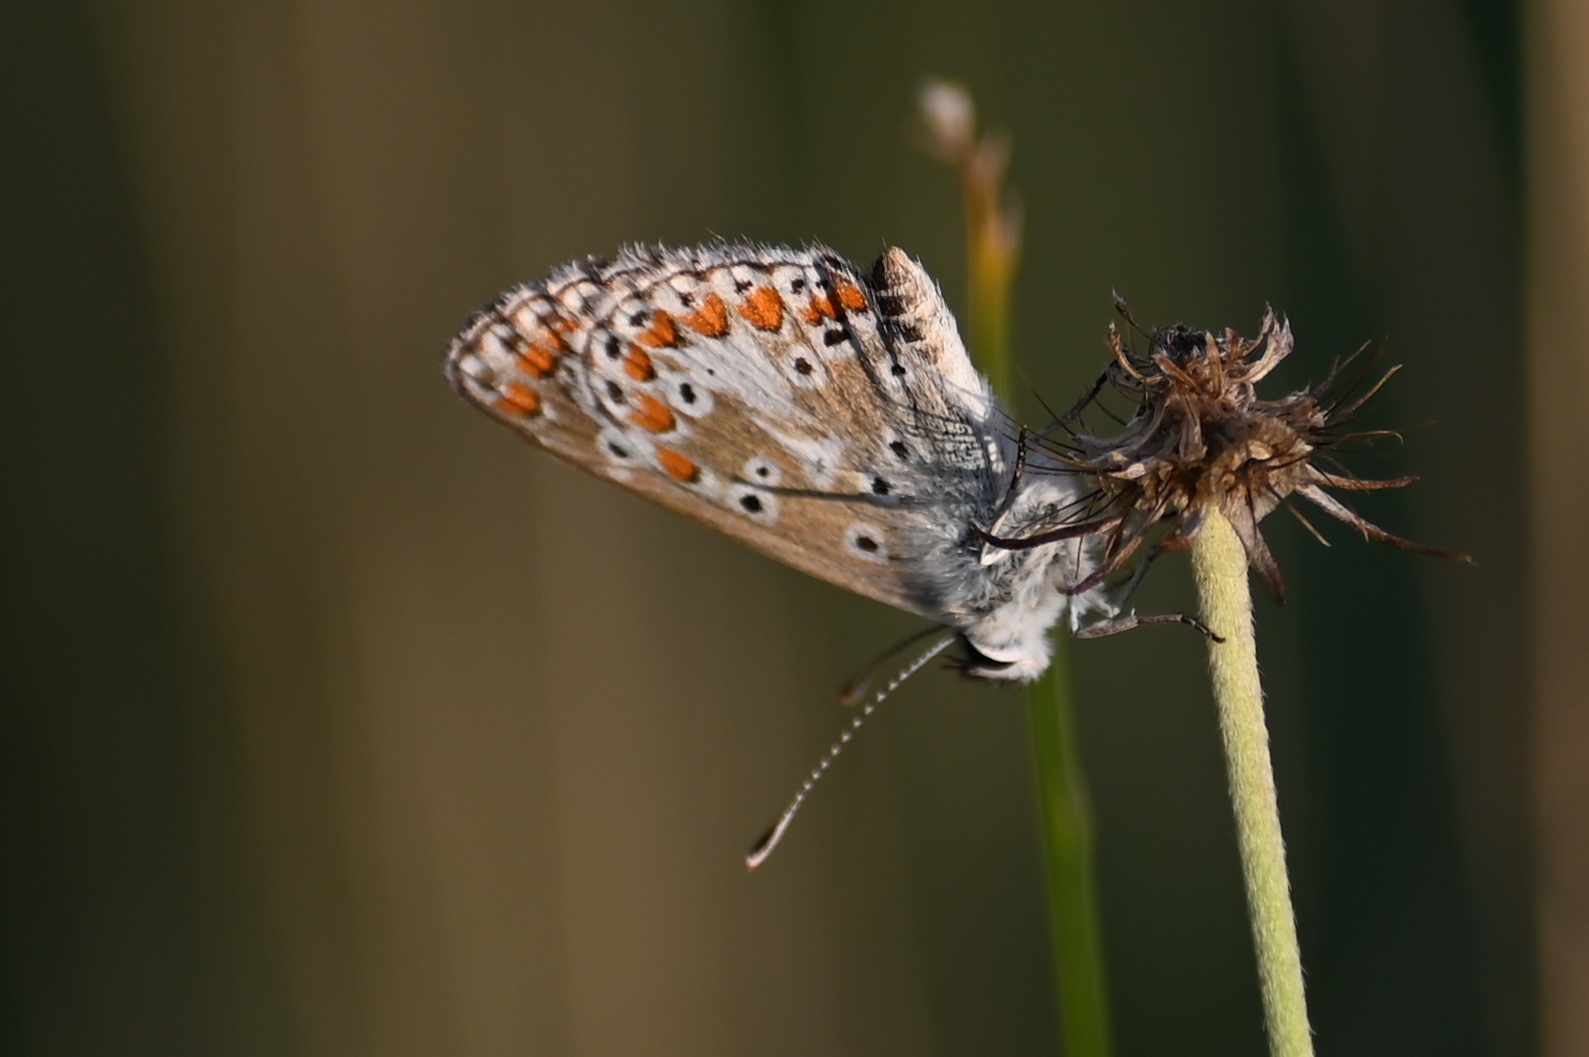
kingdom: Animalia
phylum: Arthropoda
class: Insecta
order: Lepidoptera
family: Lycaenidae
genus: Aricia
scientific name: Aricia agestis
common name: Brown argus
